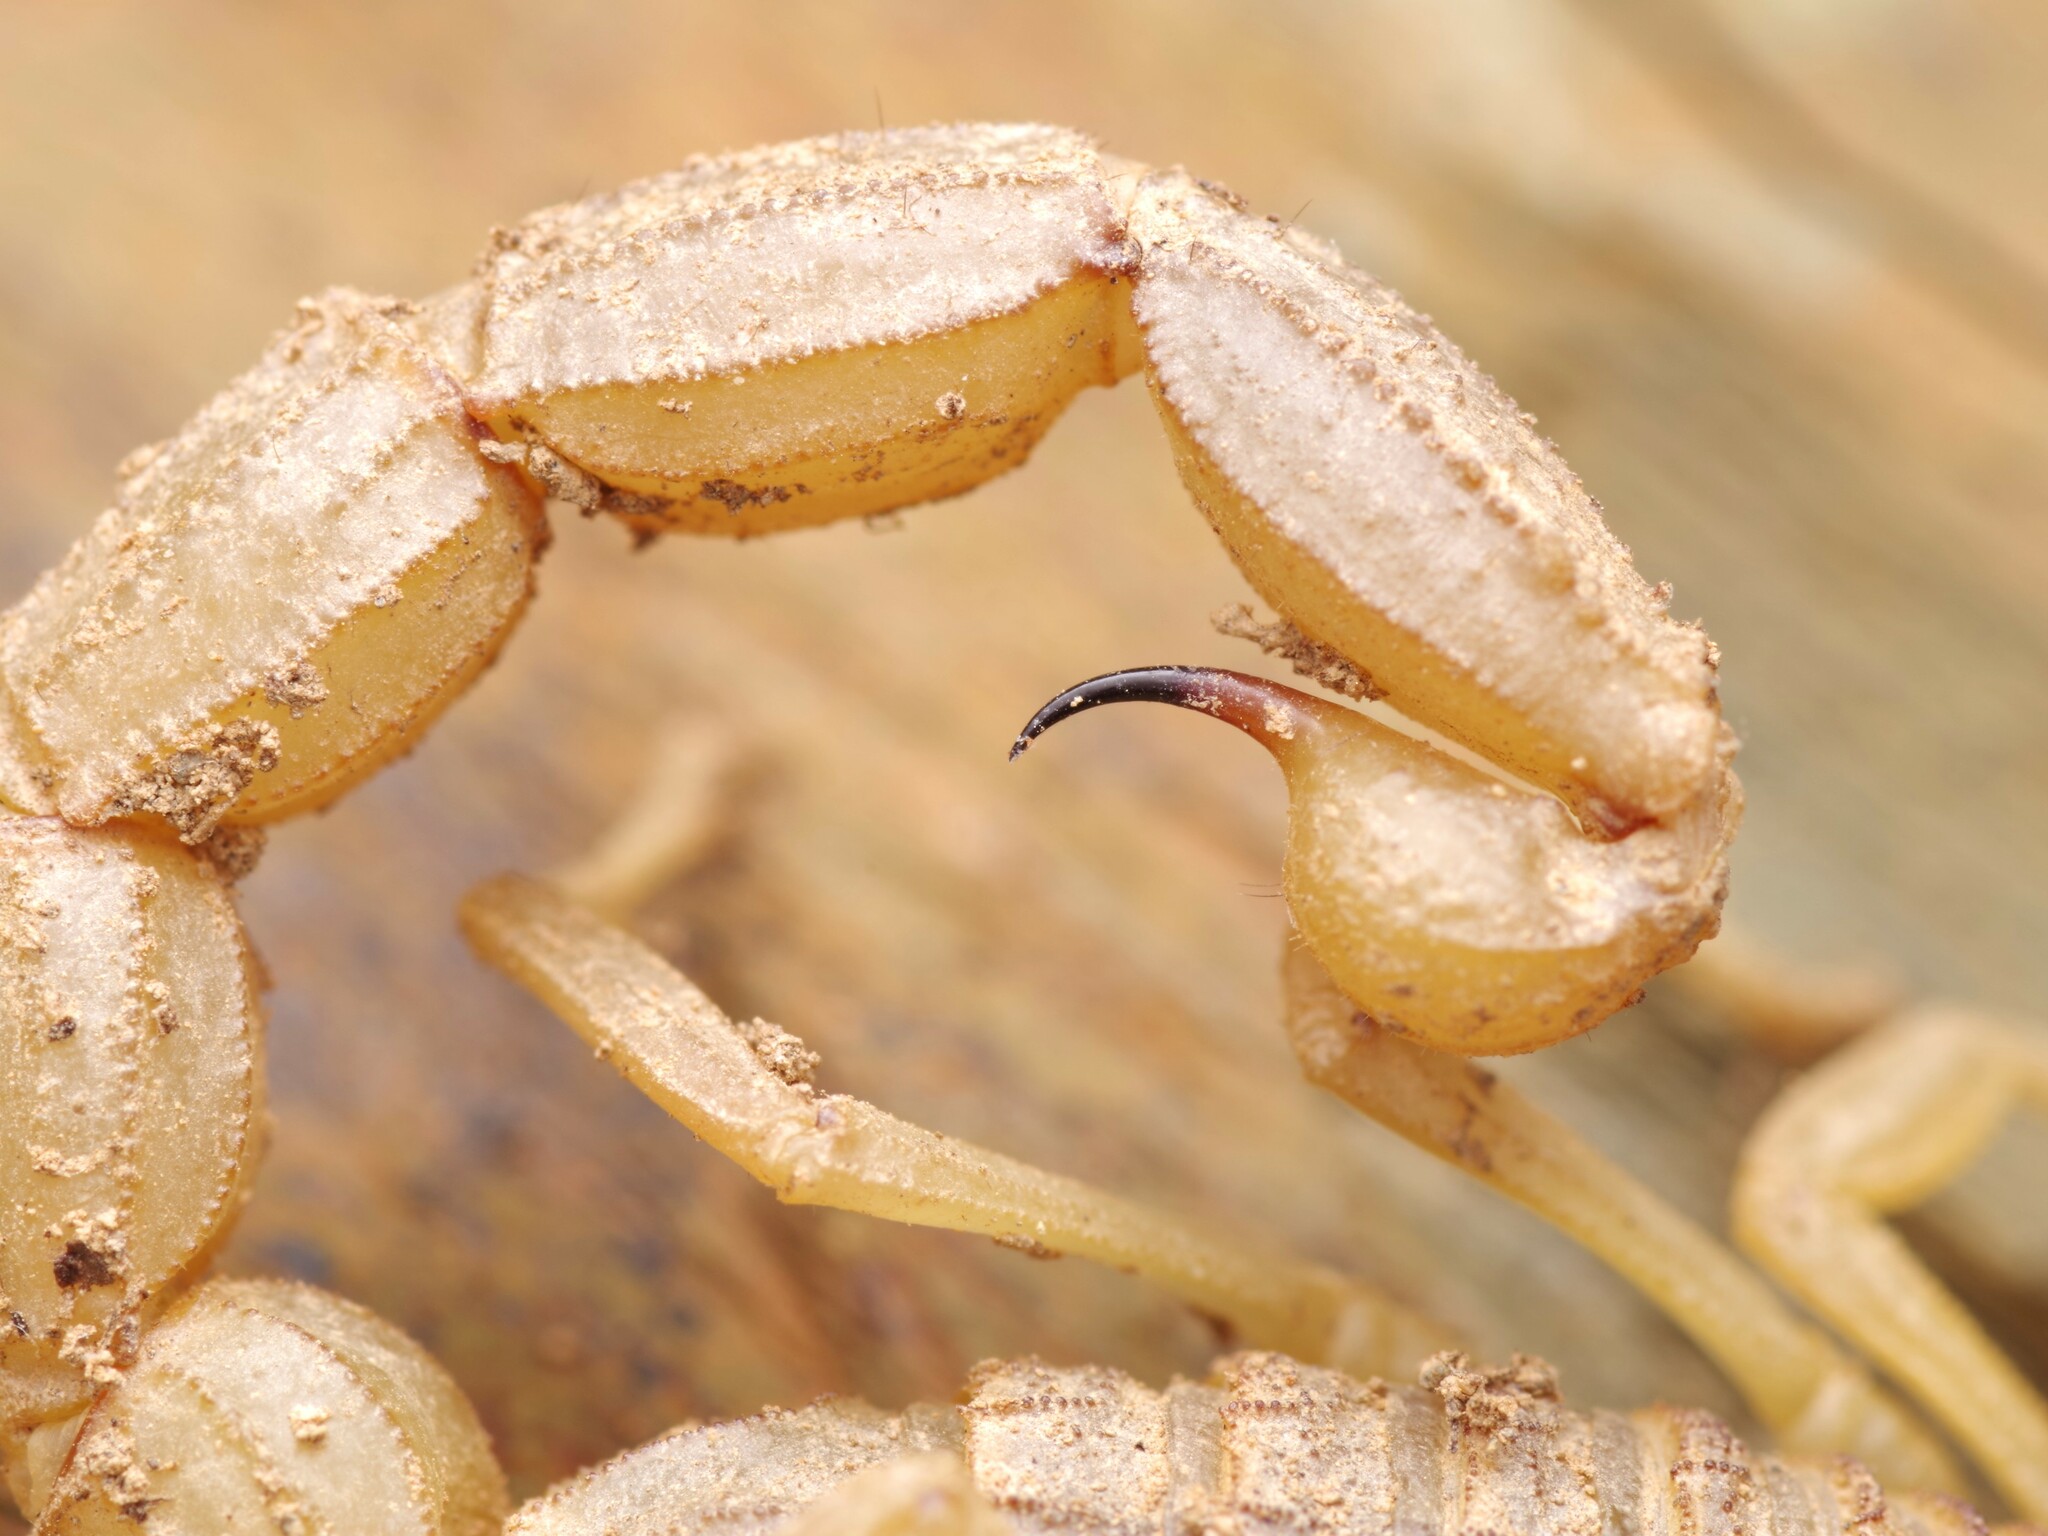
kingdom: Animalia
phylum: Arthropoda
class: Arachnida
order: Scorpiones
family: Buthidae
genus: Buthus
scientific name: Buthus pyrenaeus
